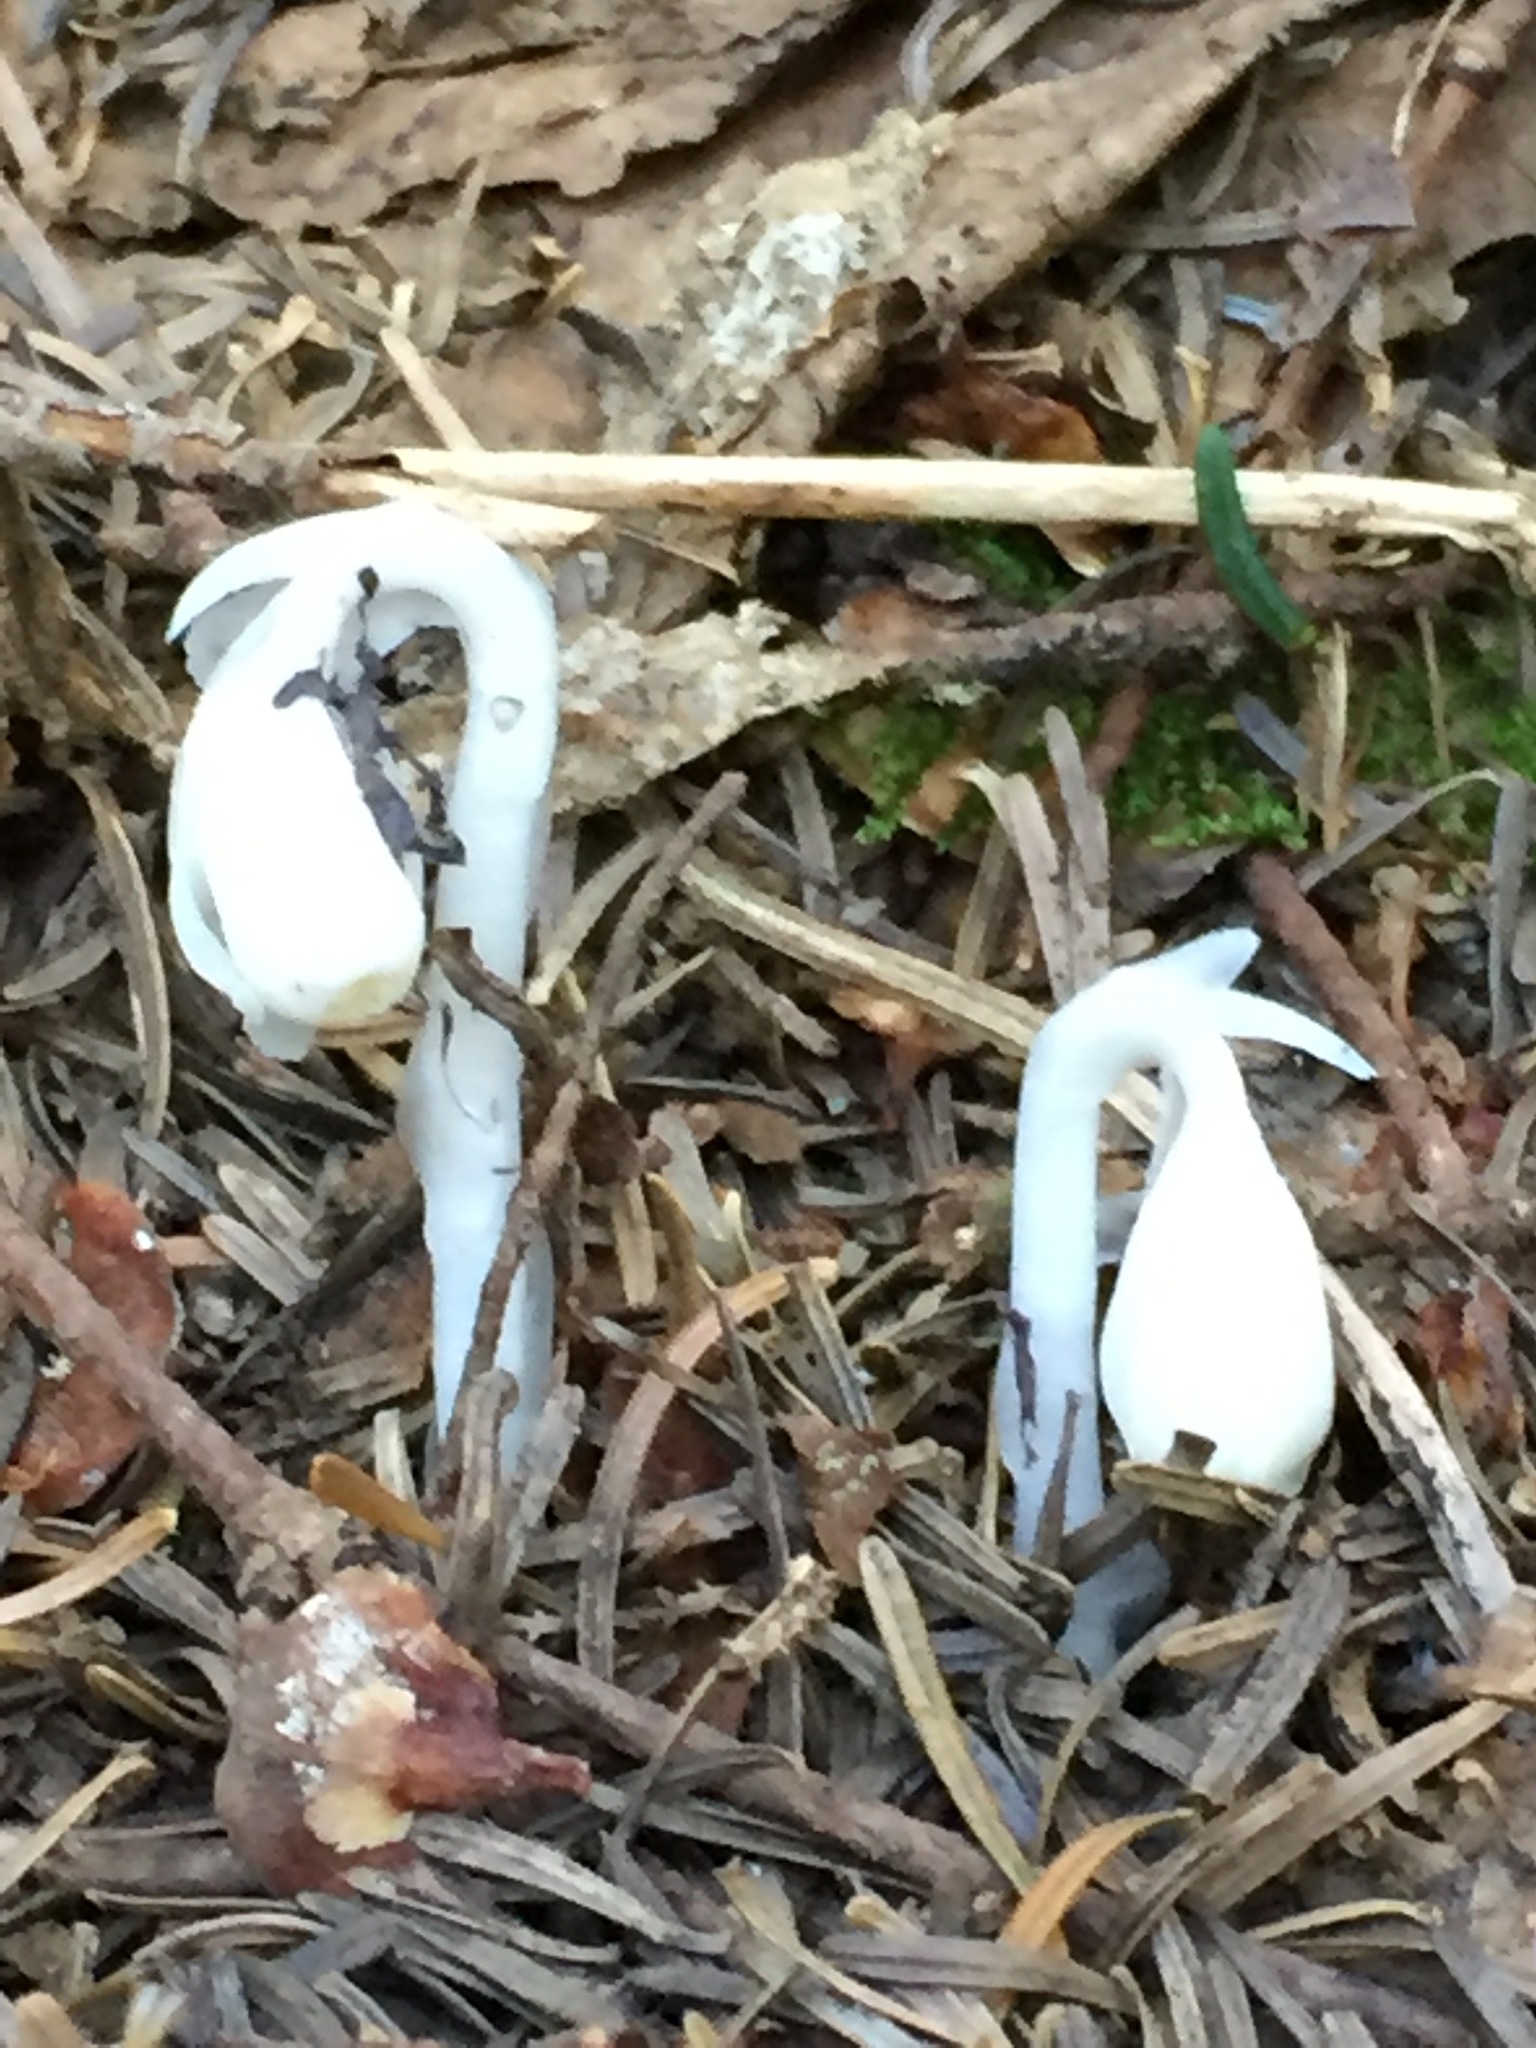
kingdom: Plantae
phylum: Tracheophyta
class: Magnoliopsida
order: Ericales
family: Ericaceae
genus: Monotropa
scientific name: Monotropa uniflora
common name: Convulsion root
